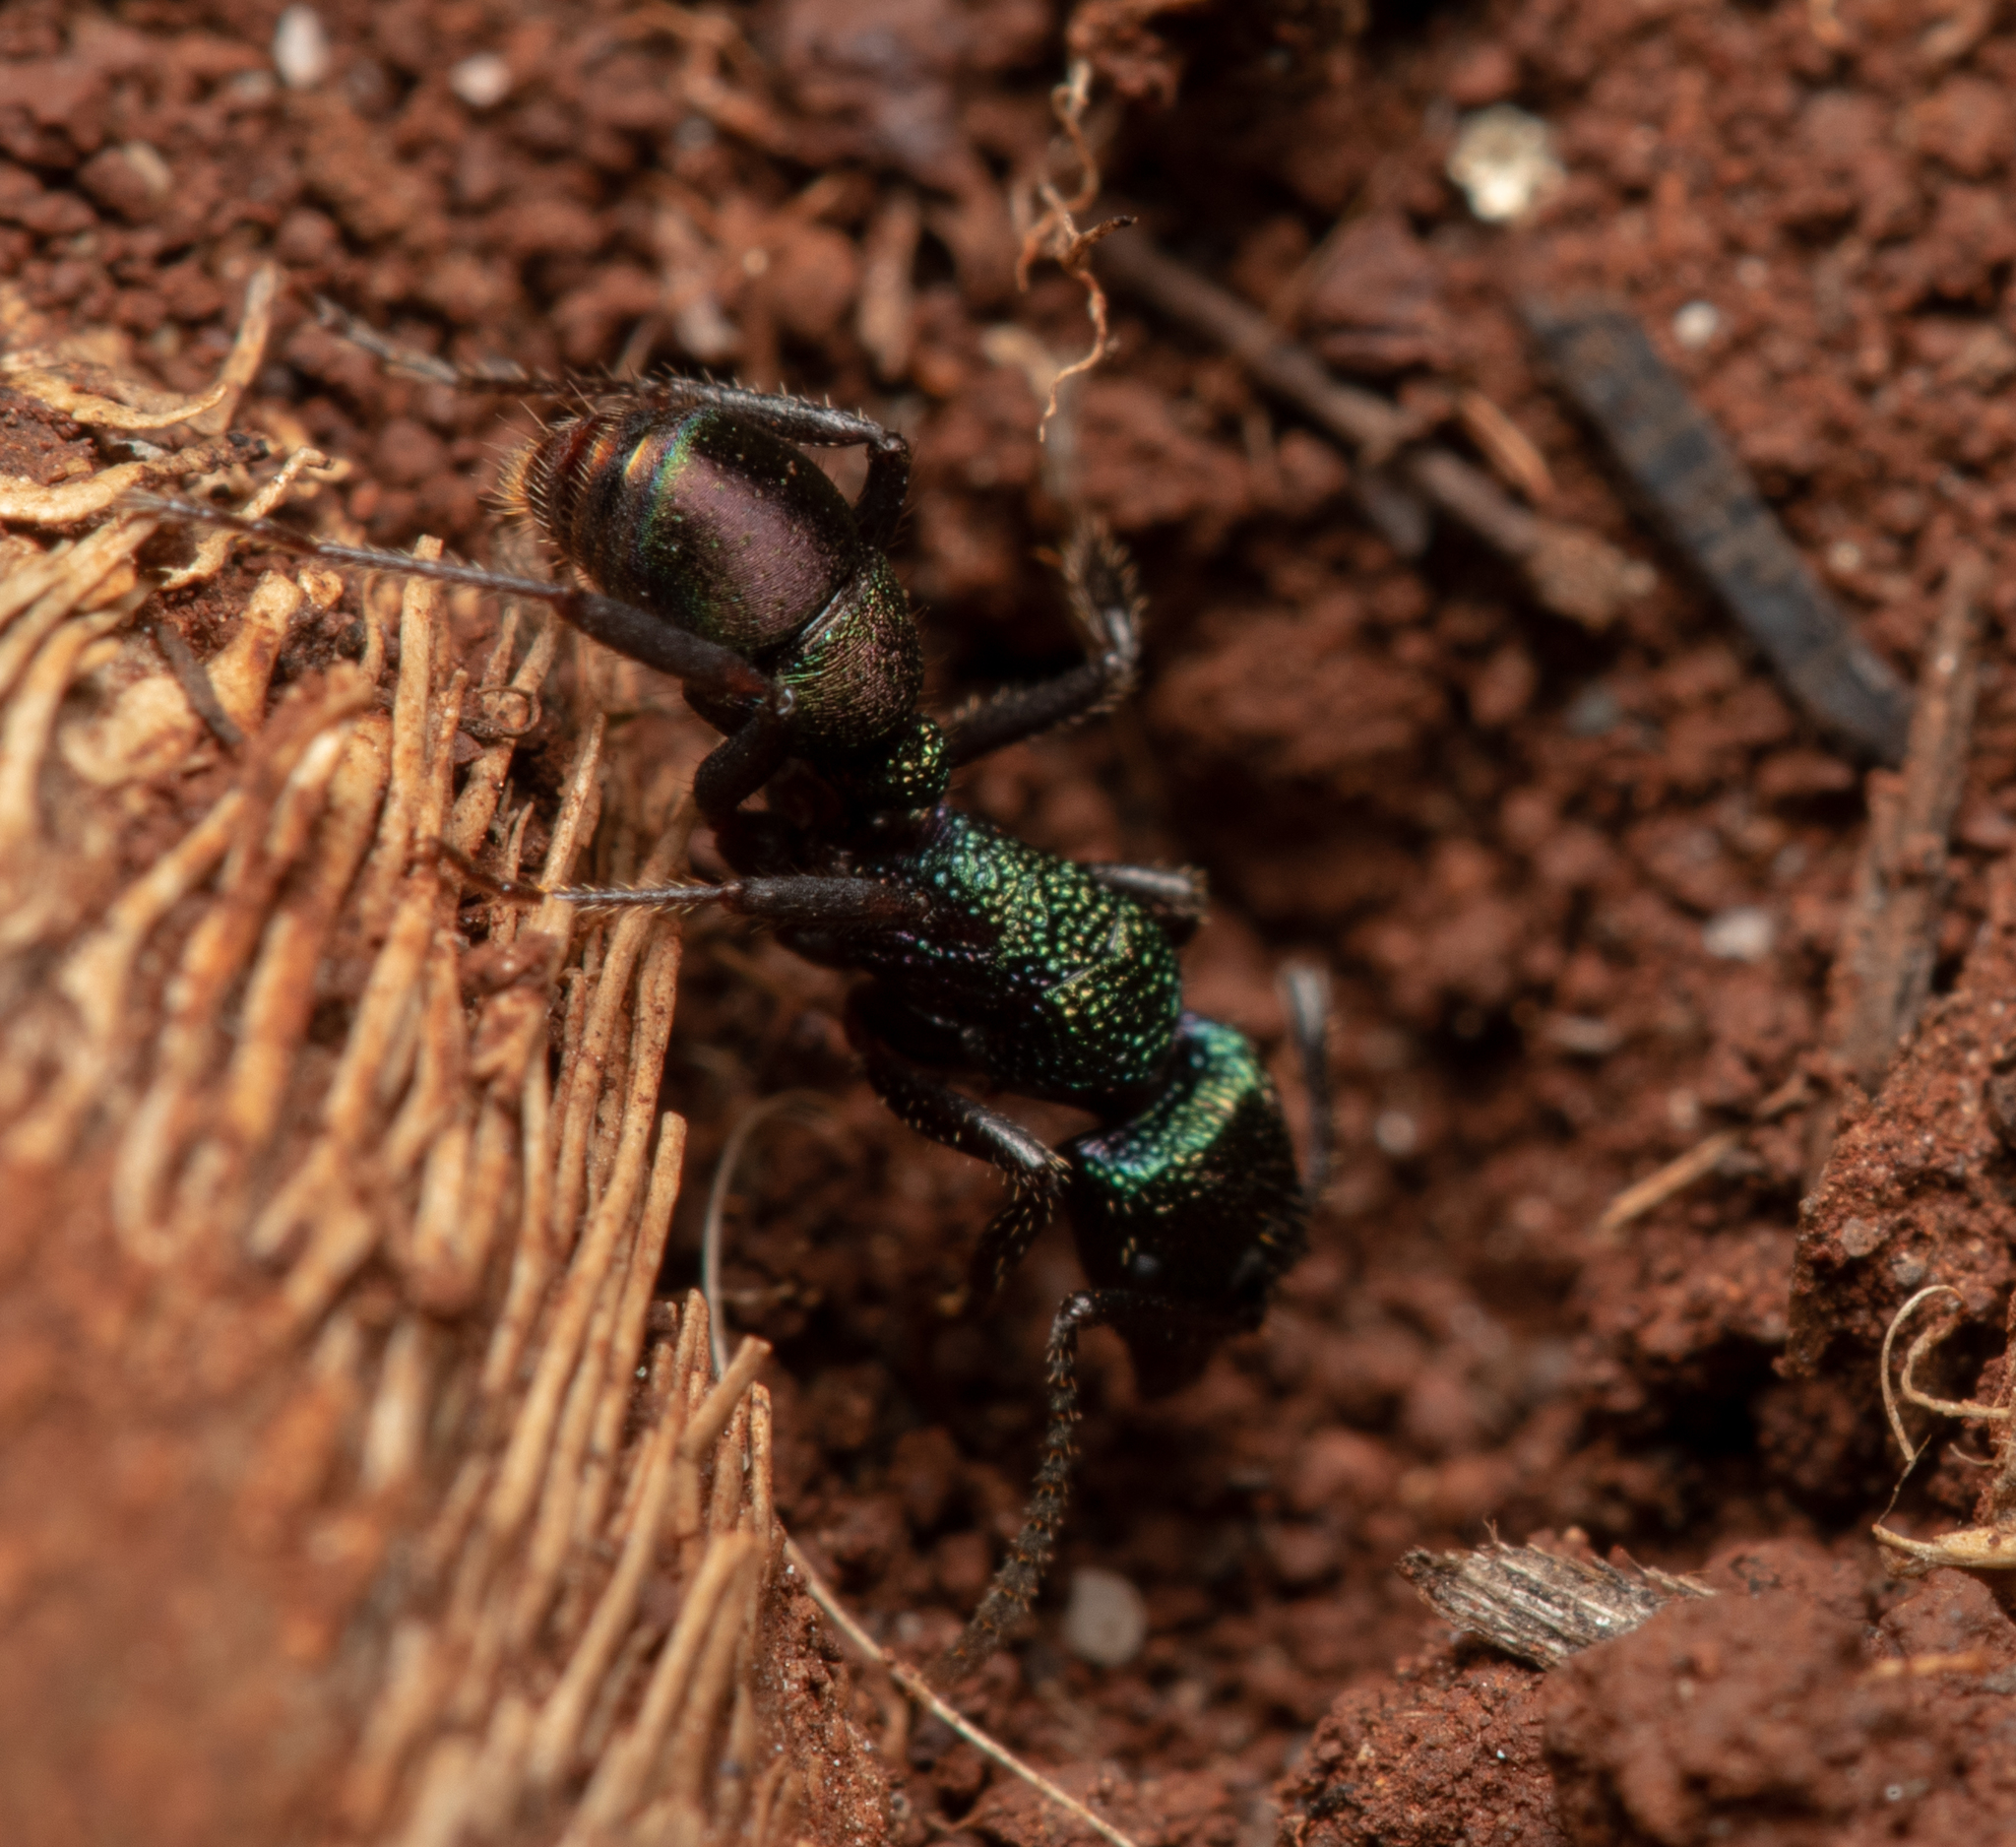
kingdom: Animalia
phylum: Arthropoda
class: Insecta
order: Hymenoptera
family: Formicidae
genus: Rhytidoponera
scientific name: Rhytidoponera metallica
